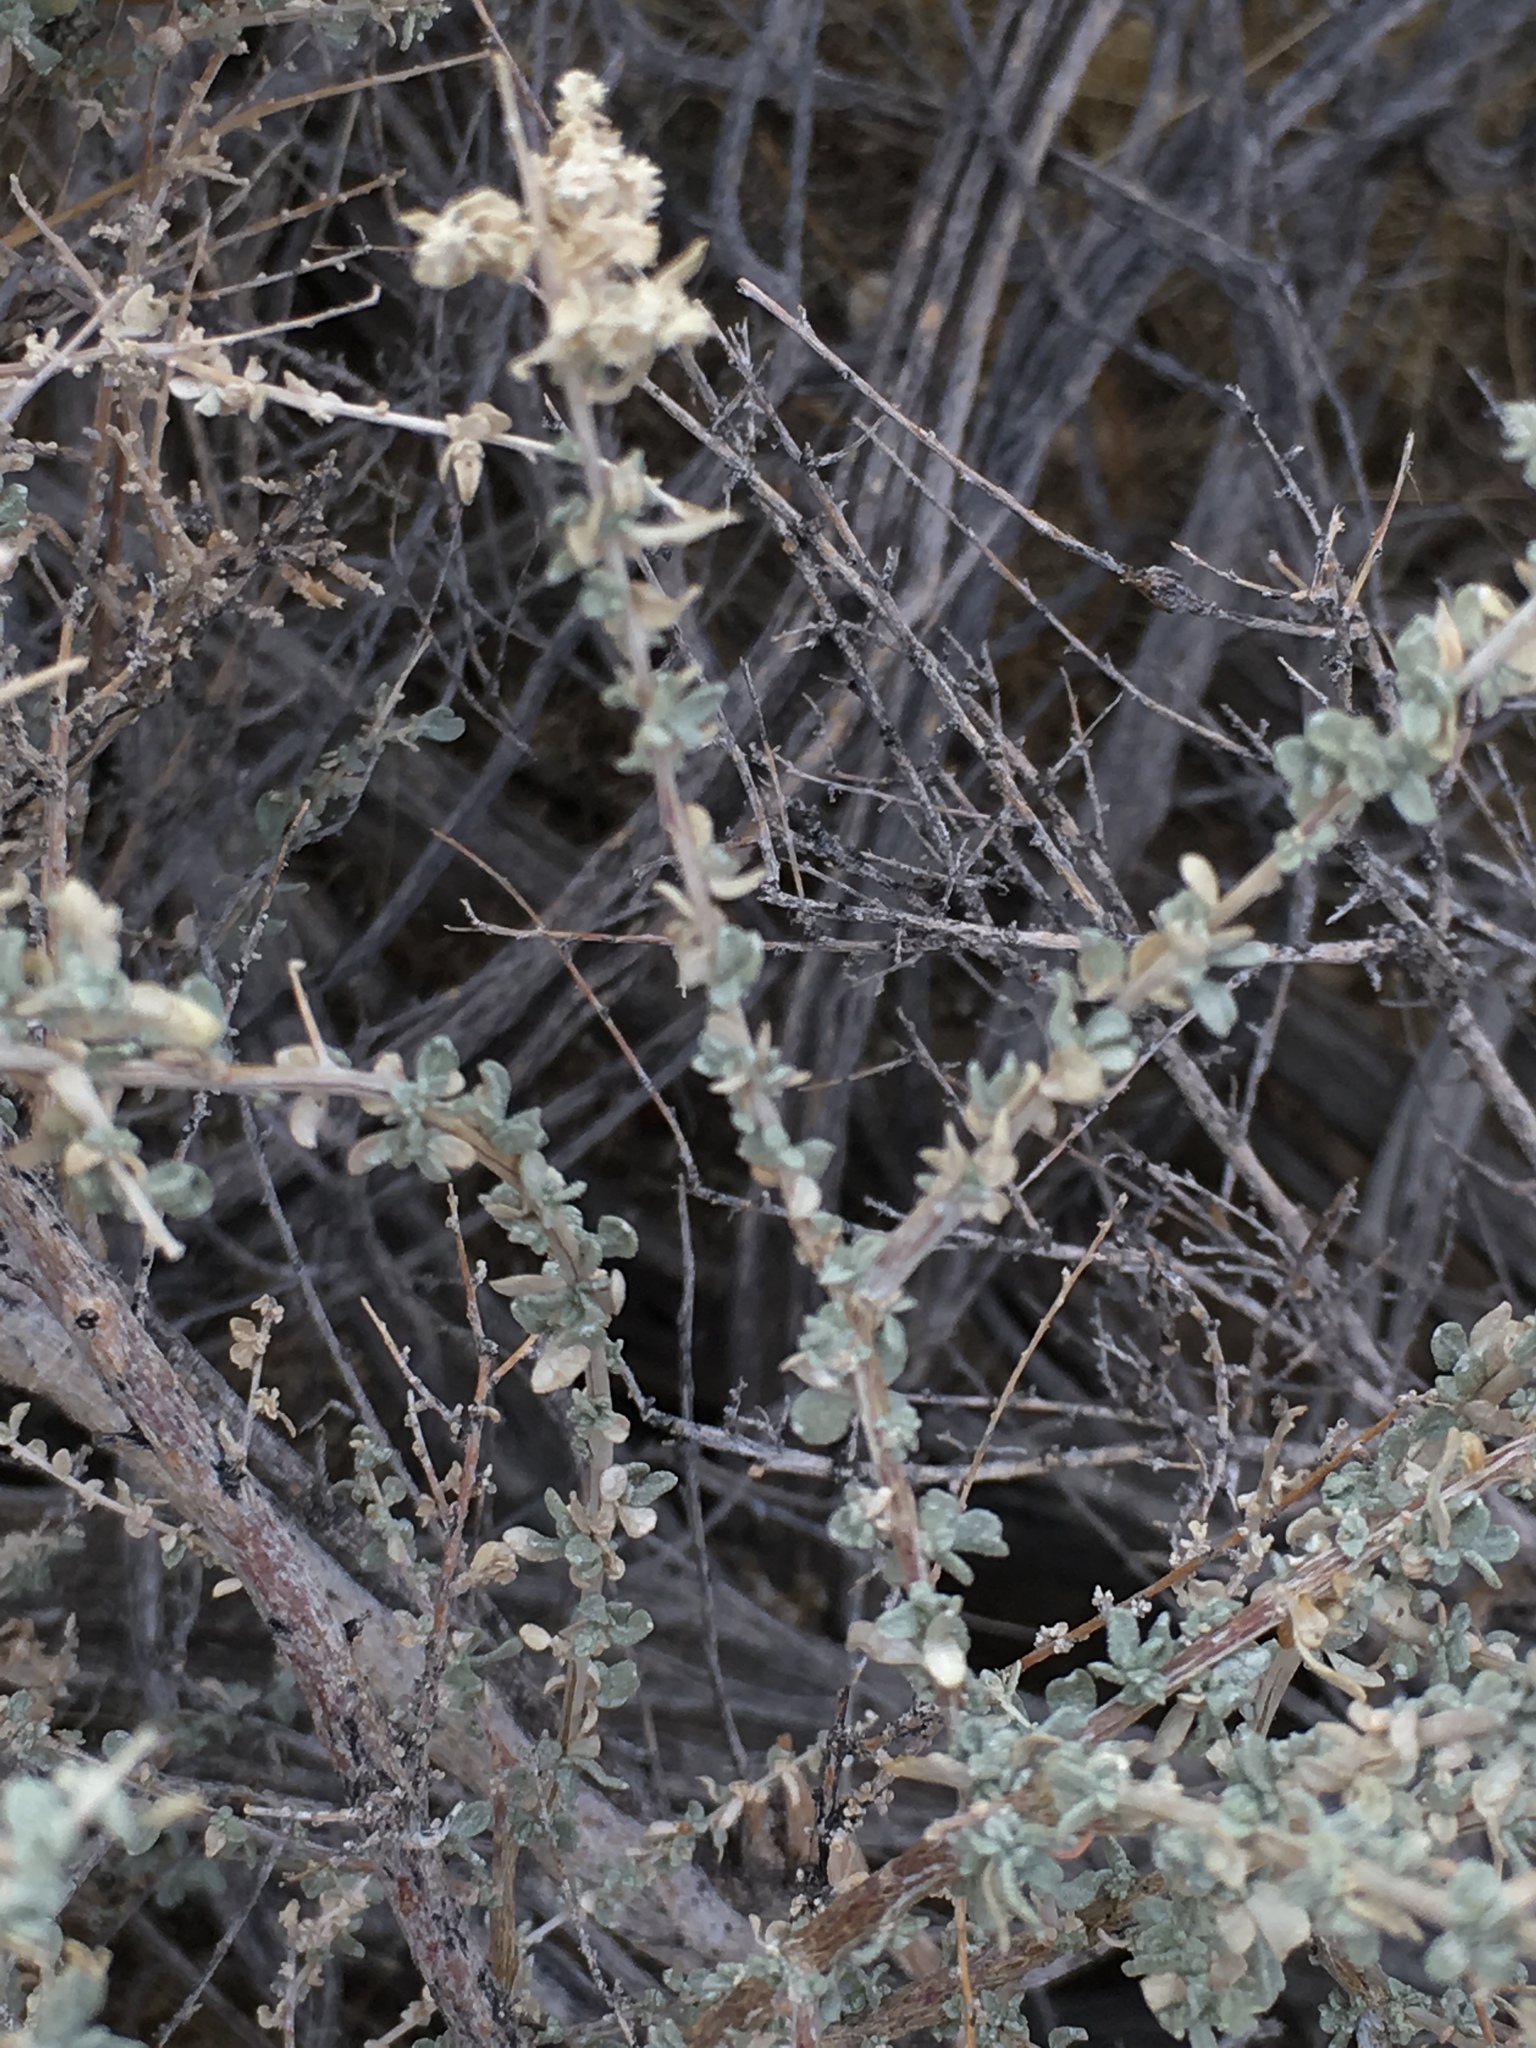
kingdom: Plantae
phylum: Tracheophyta
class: Magnoliopsida
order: Caryophyllales
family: Amaranthaceae
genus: Atriplex
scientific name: Atriplex polycarpa
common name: Desert saltbush
